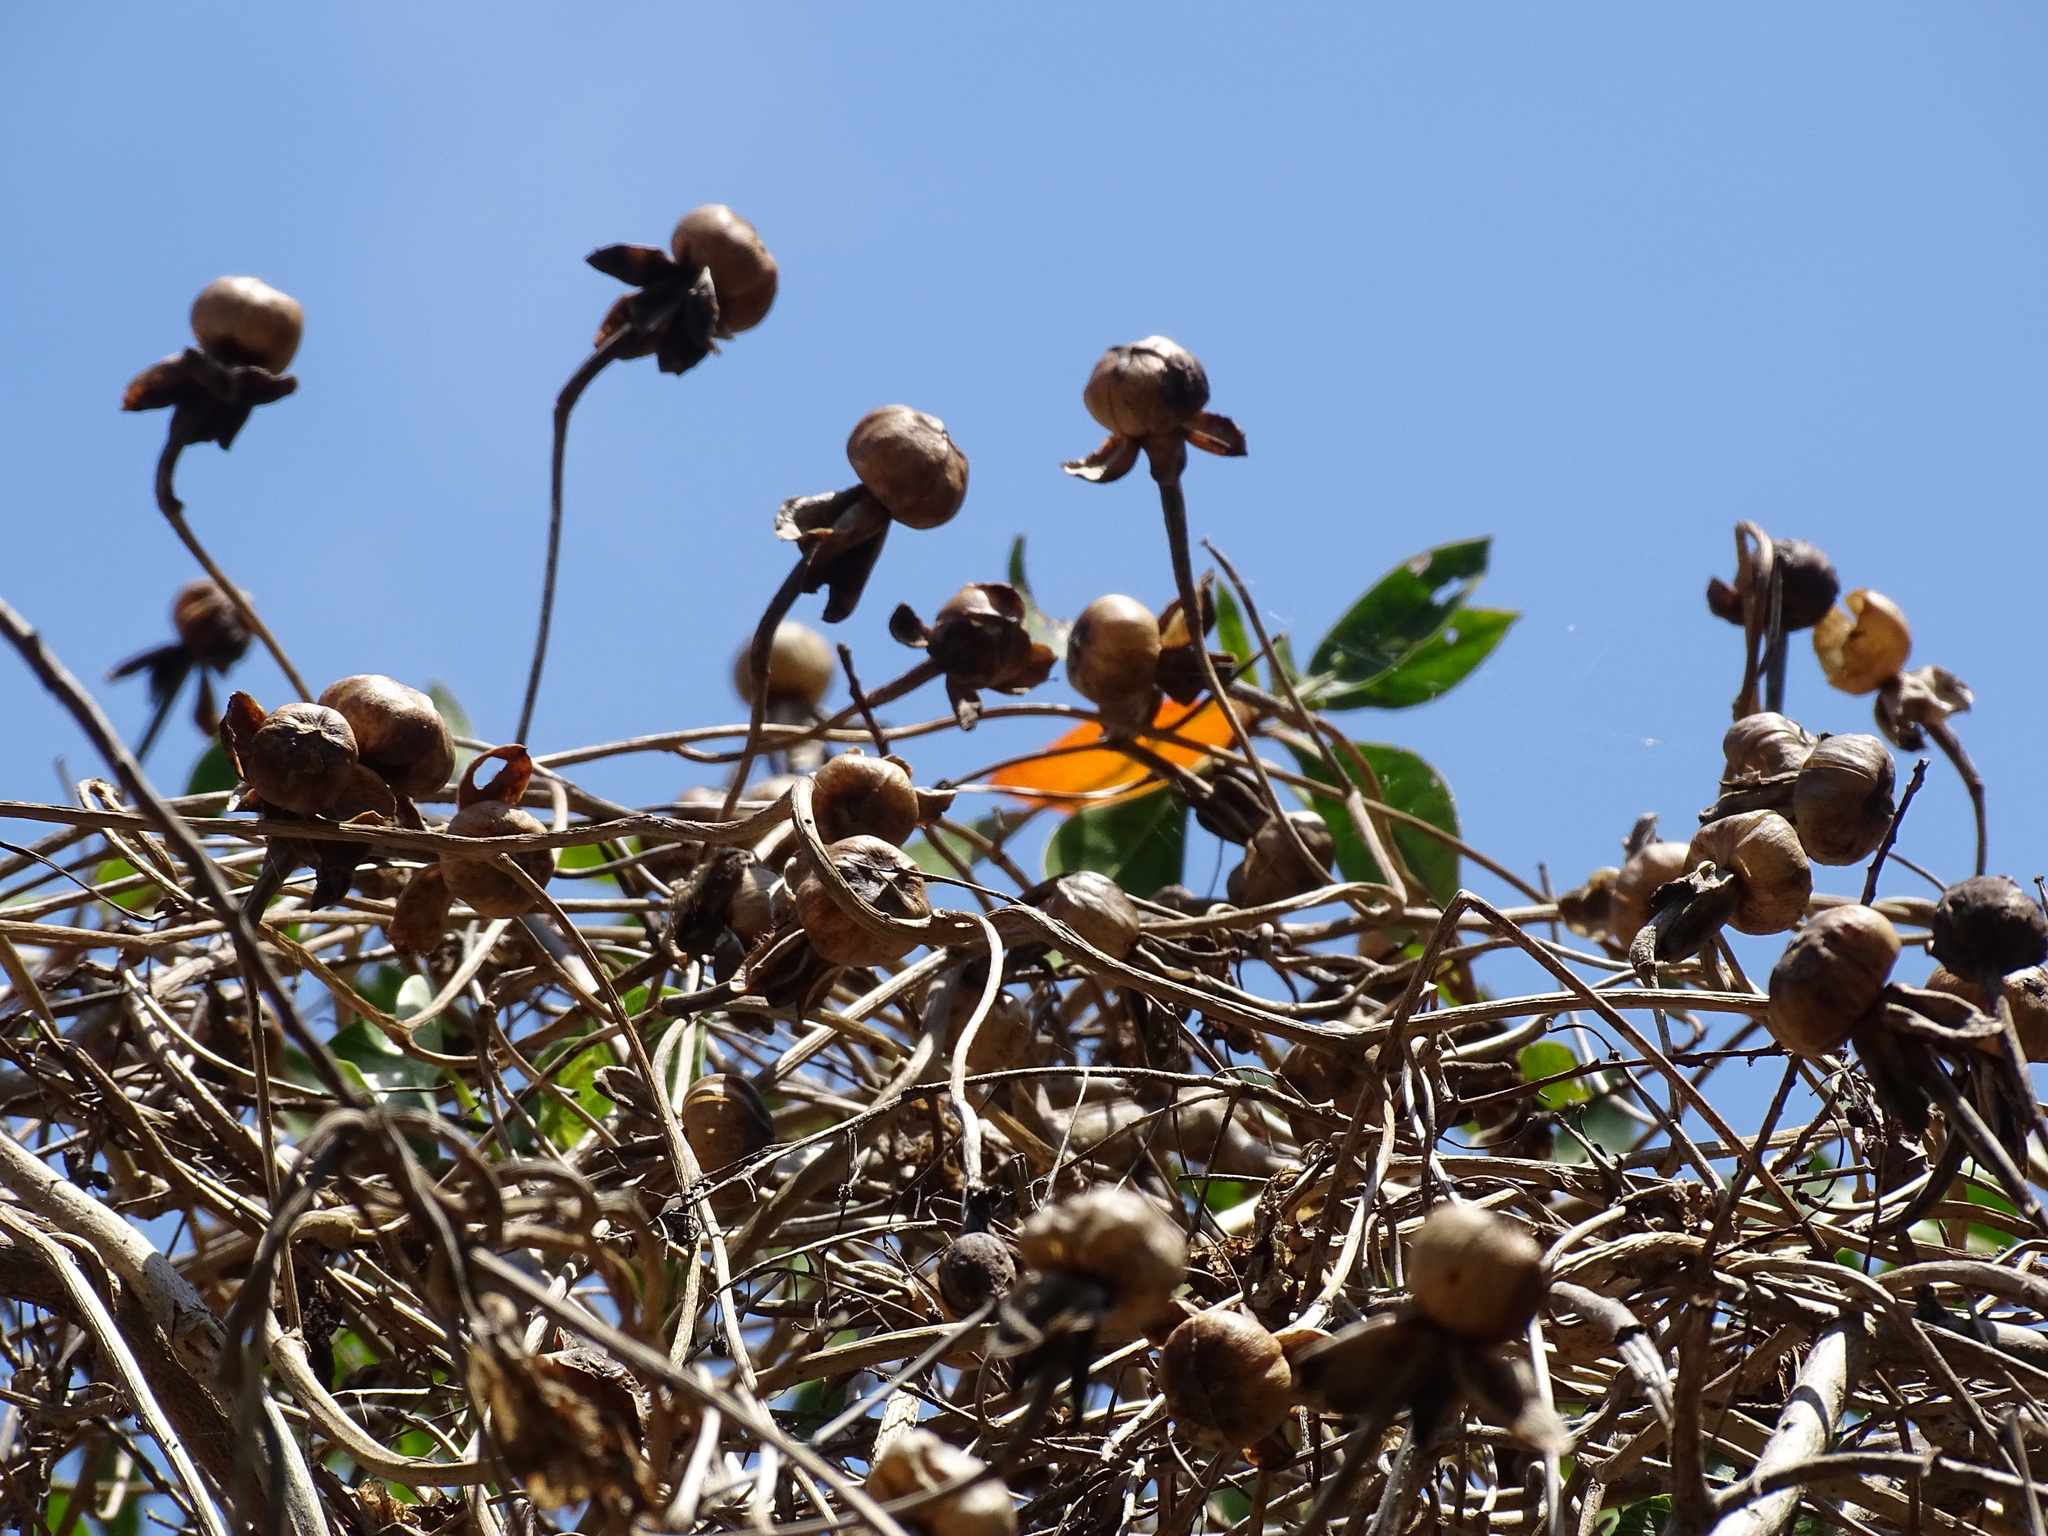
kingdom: Plantae
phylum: Tracheophyta
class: Magnoliopsida
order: Solanales
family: Convolvulaceae
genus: Ipomoea
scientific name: Ipomoea violacea
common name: Beach moonflower
